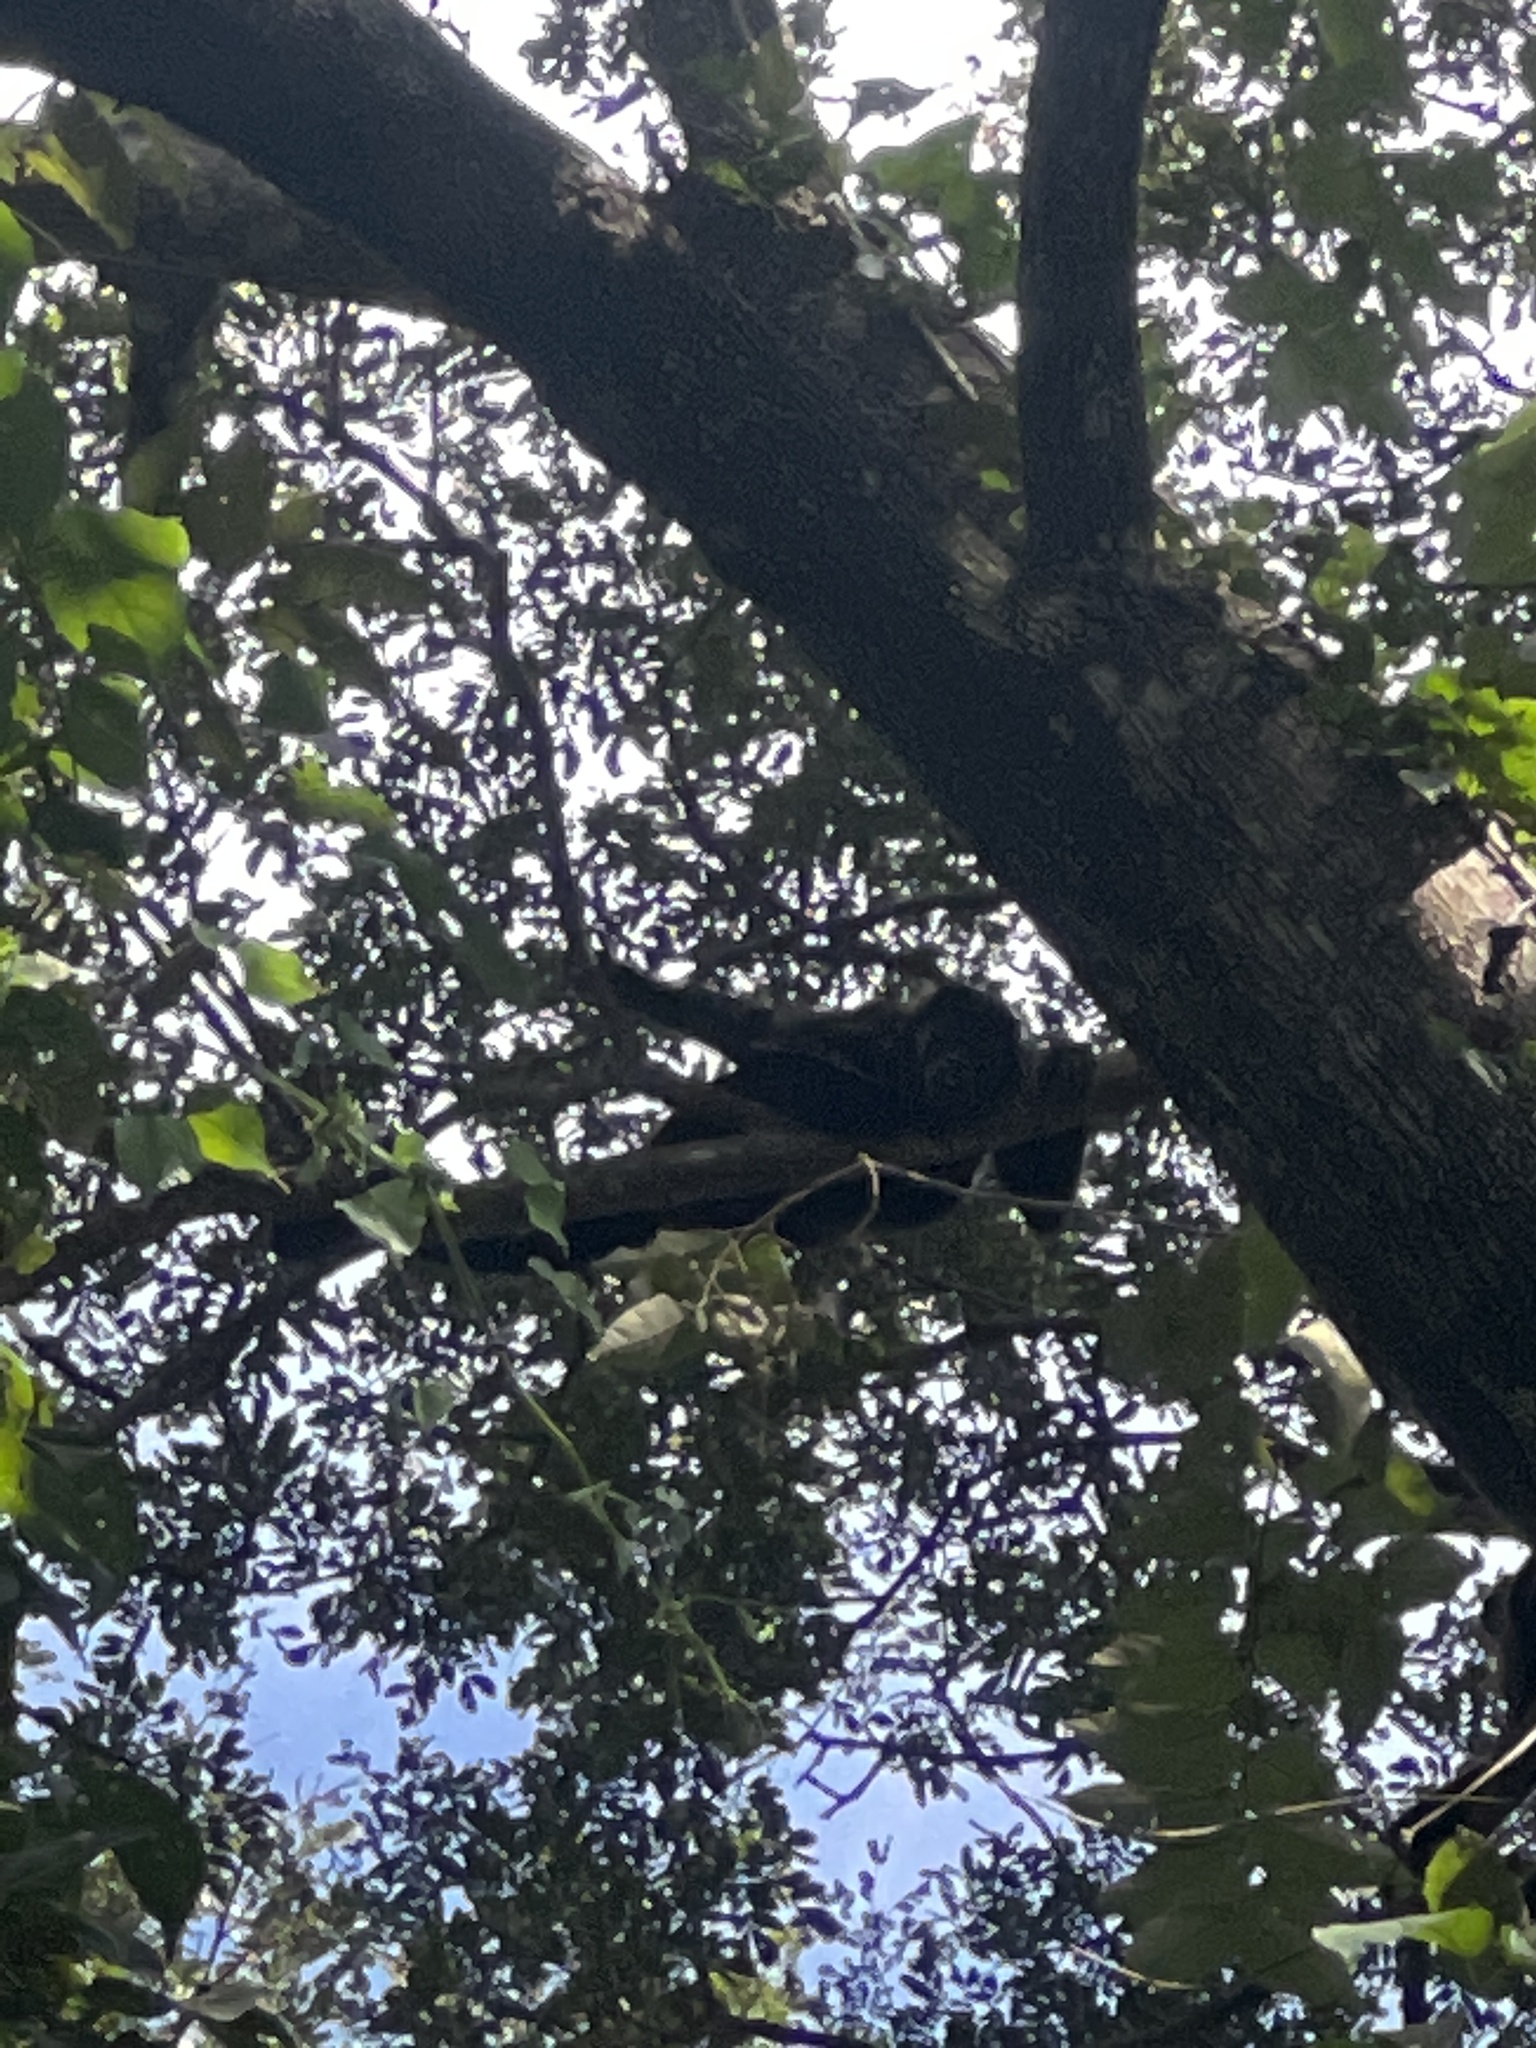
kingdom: Animalia
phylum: Chordata
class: Mammalia
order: Primates
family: Atelidae
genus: Alouatta
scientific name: Alouatta palliata
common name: Mantled howler
